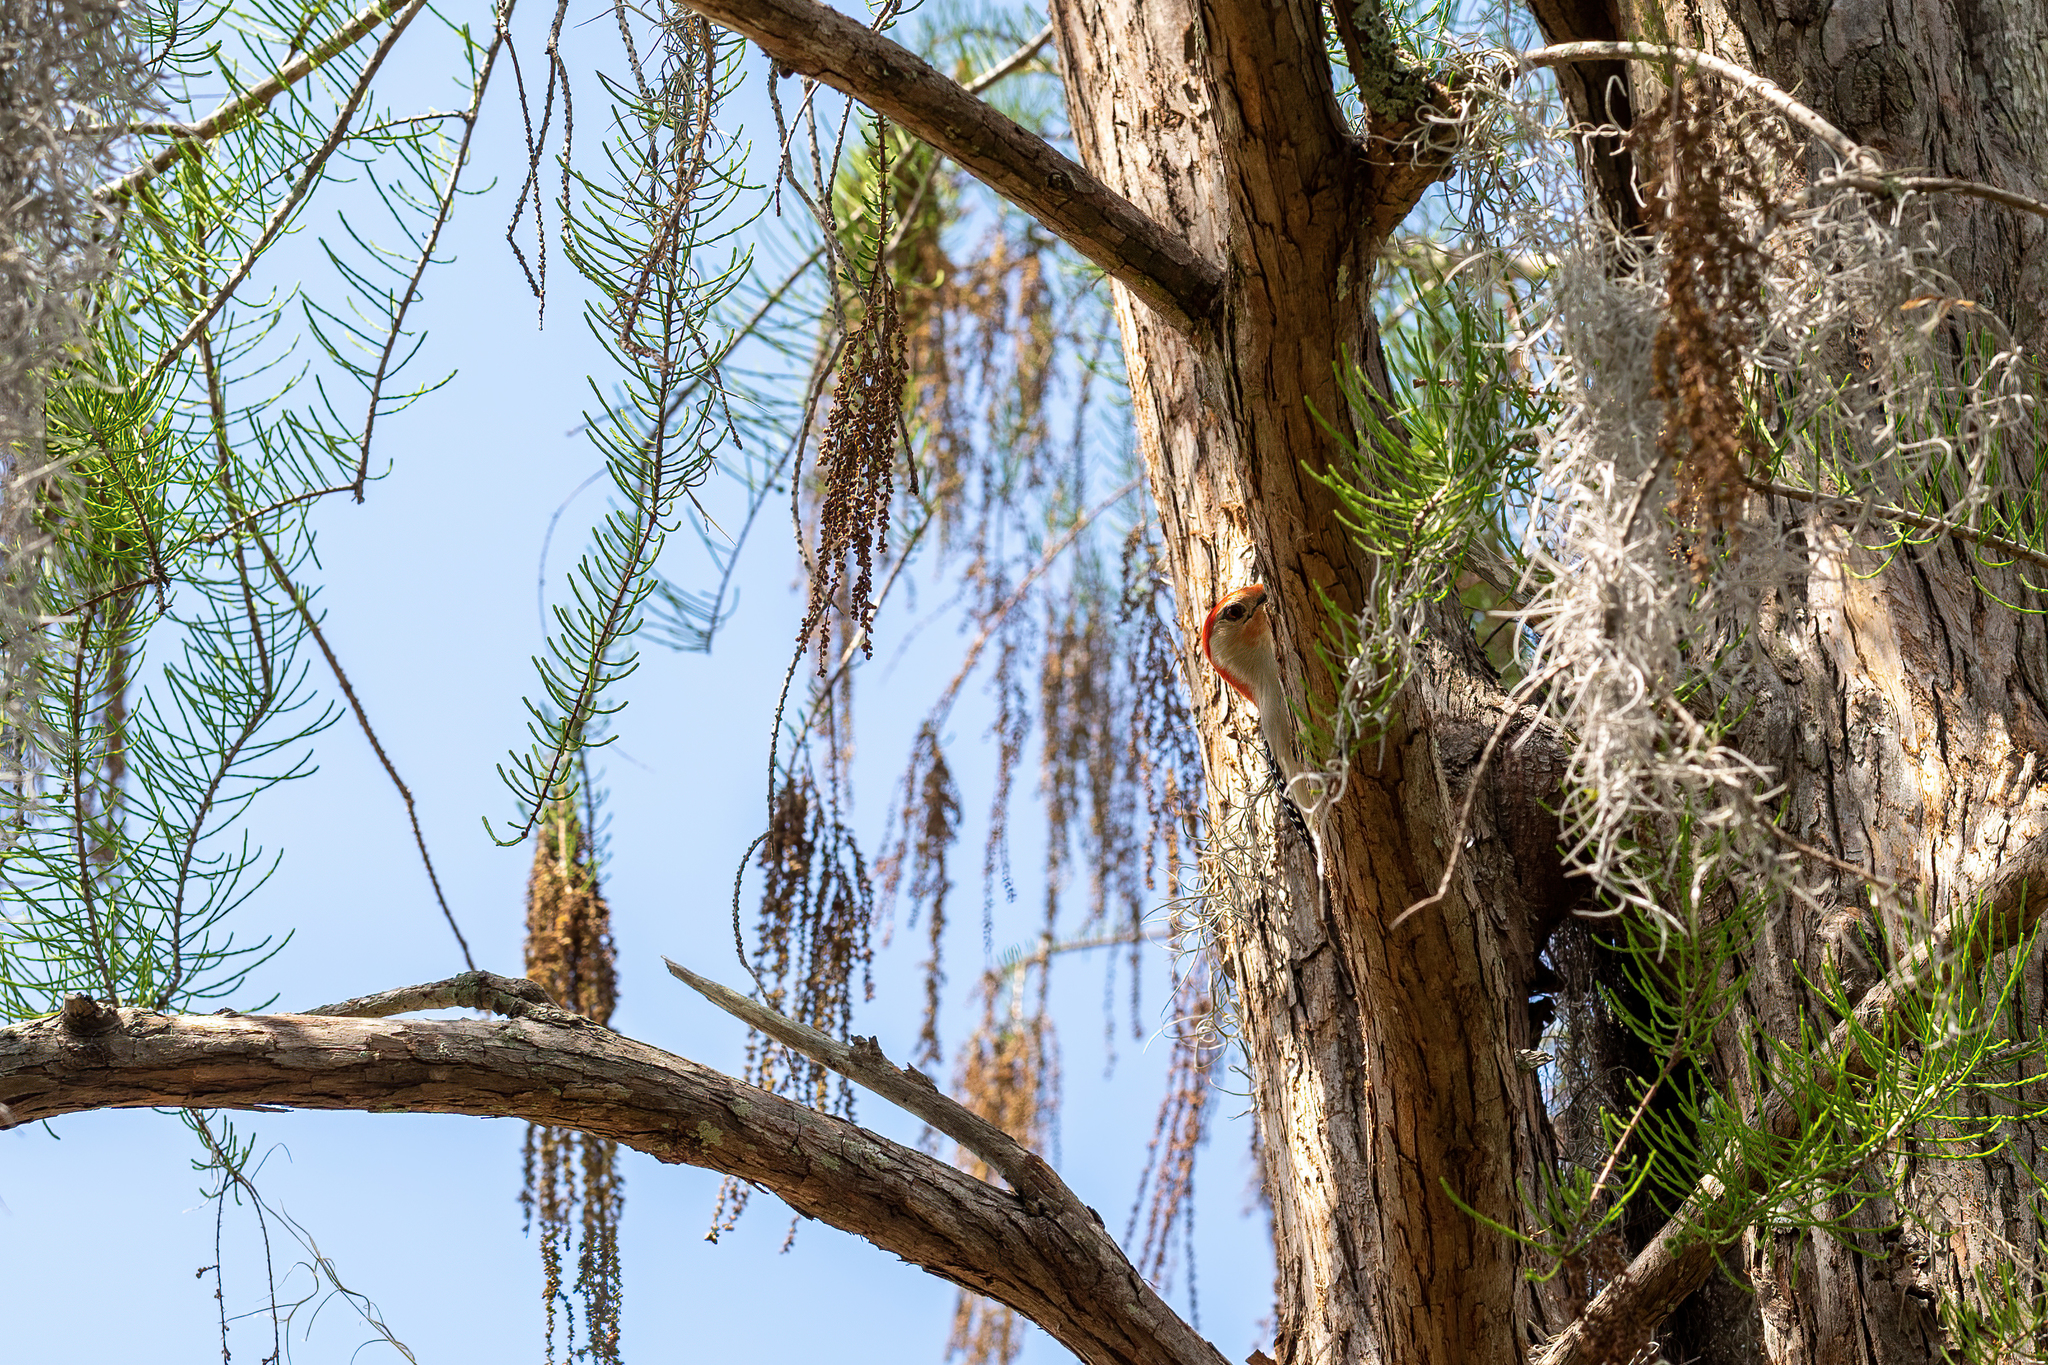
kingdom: Animalia
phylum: Chordata
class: Aves
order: Piciformes
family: Picidae
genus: Melanerpes
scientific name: Melanerpes carolinus
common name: Red-bellied woodpecker
